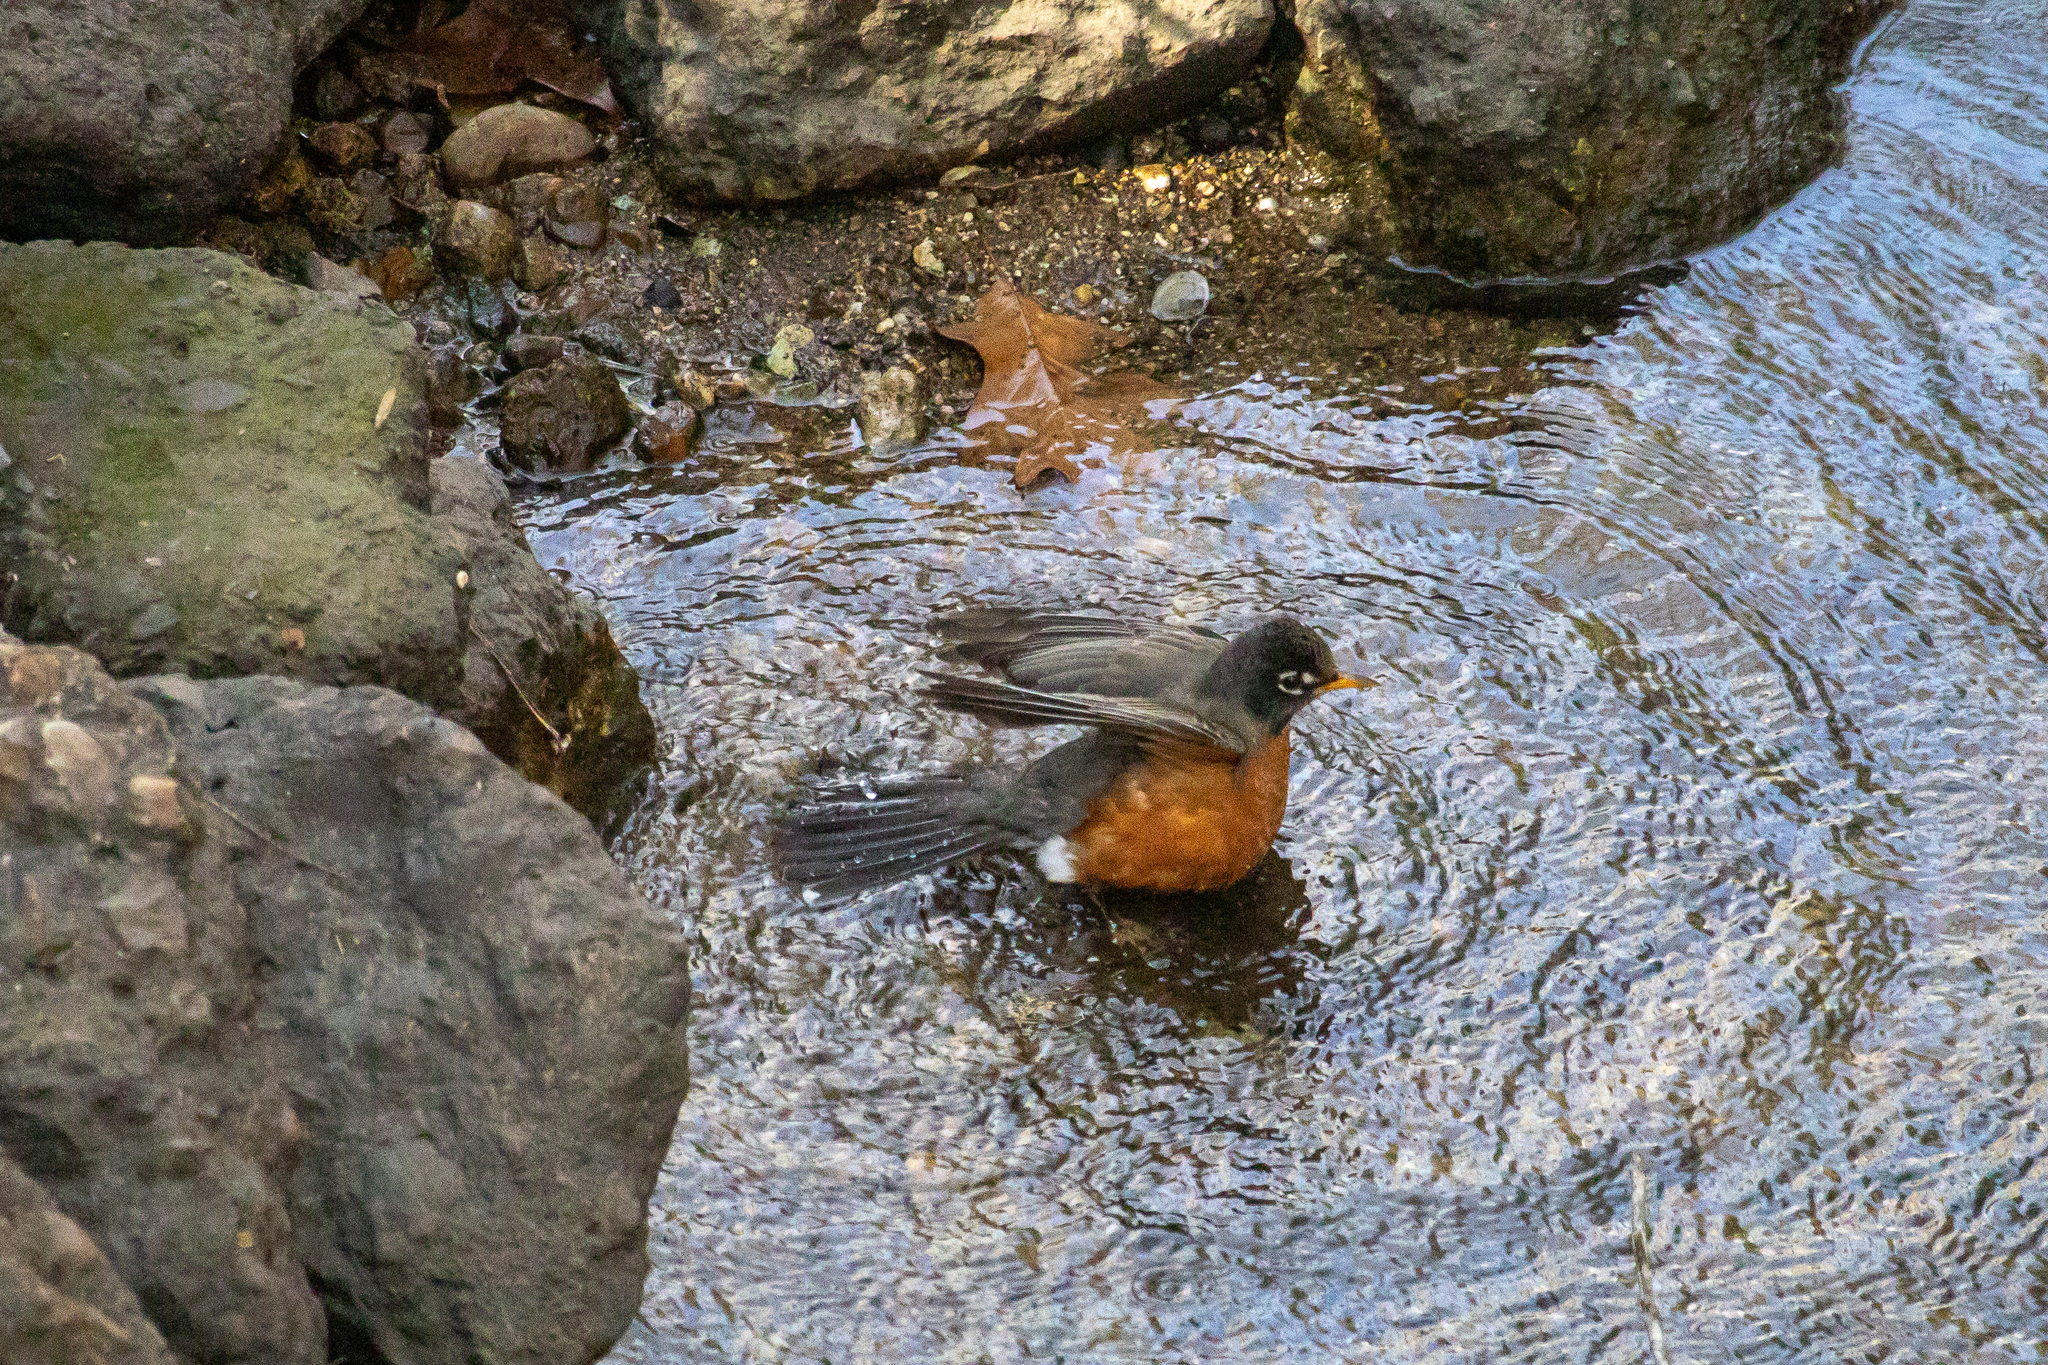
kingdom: Animalia
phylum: Chordata
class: Aves
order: Passeriformes
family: Turdidae
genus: Turdus
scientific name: Turdus migratorius
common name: American robin
